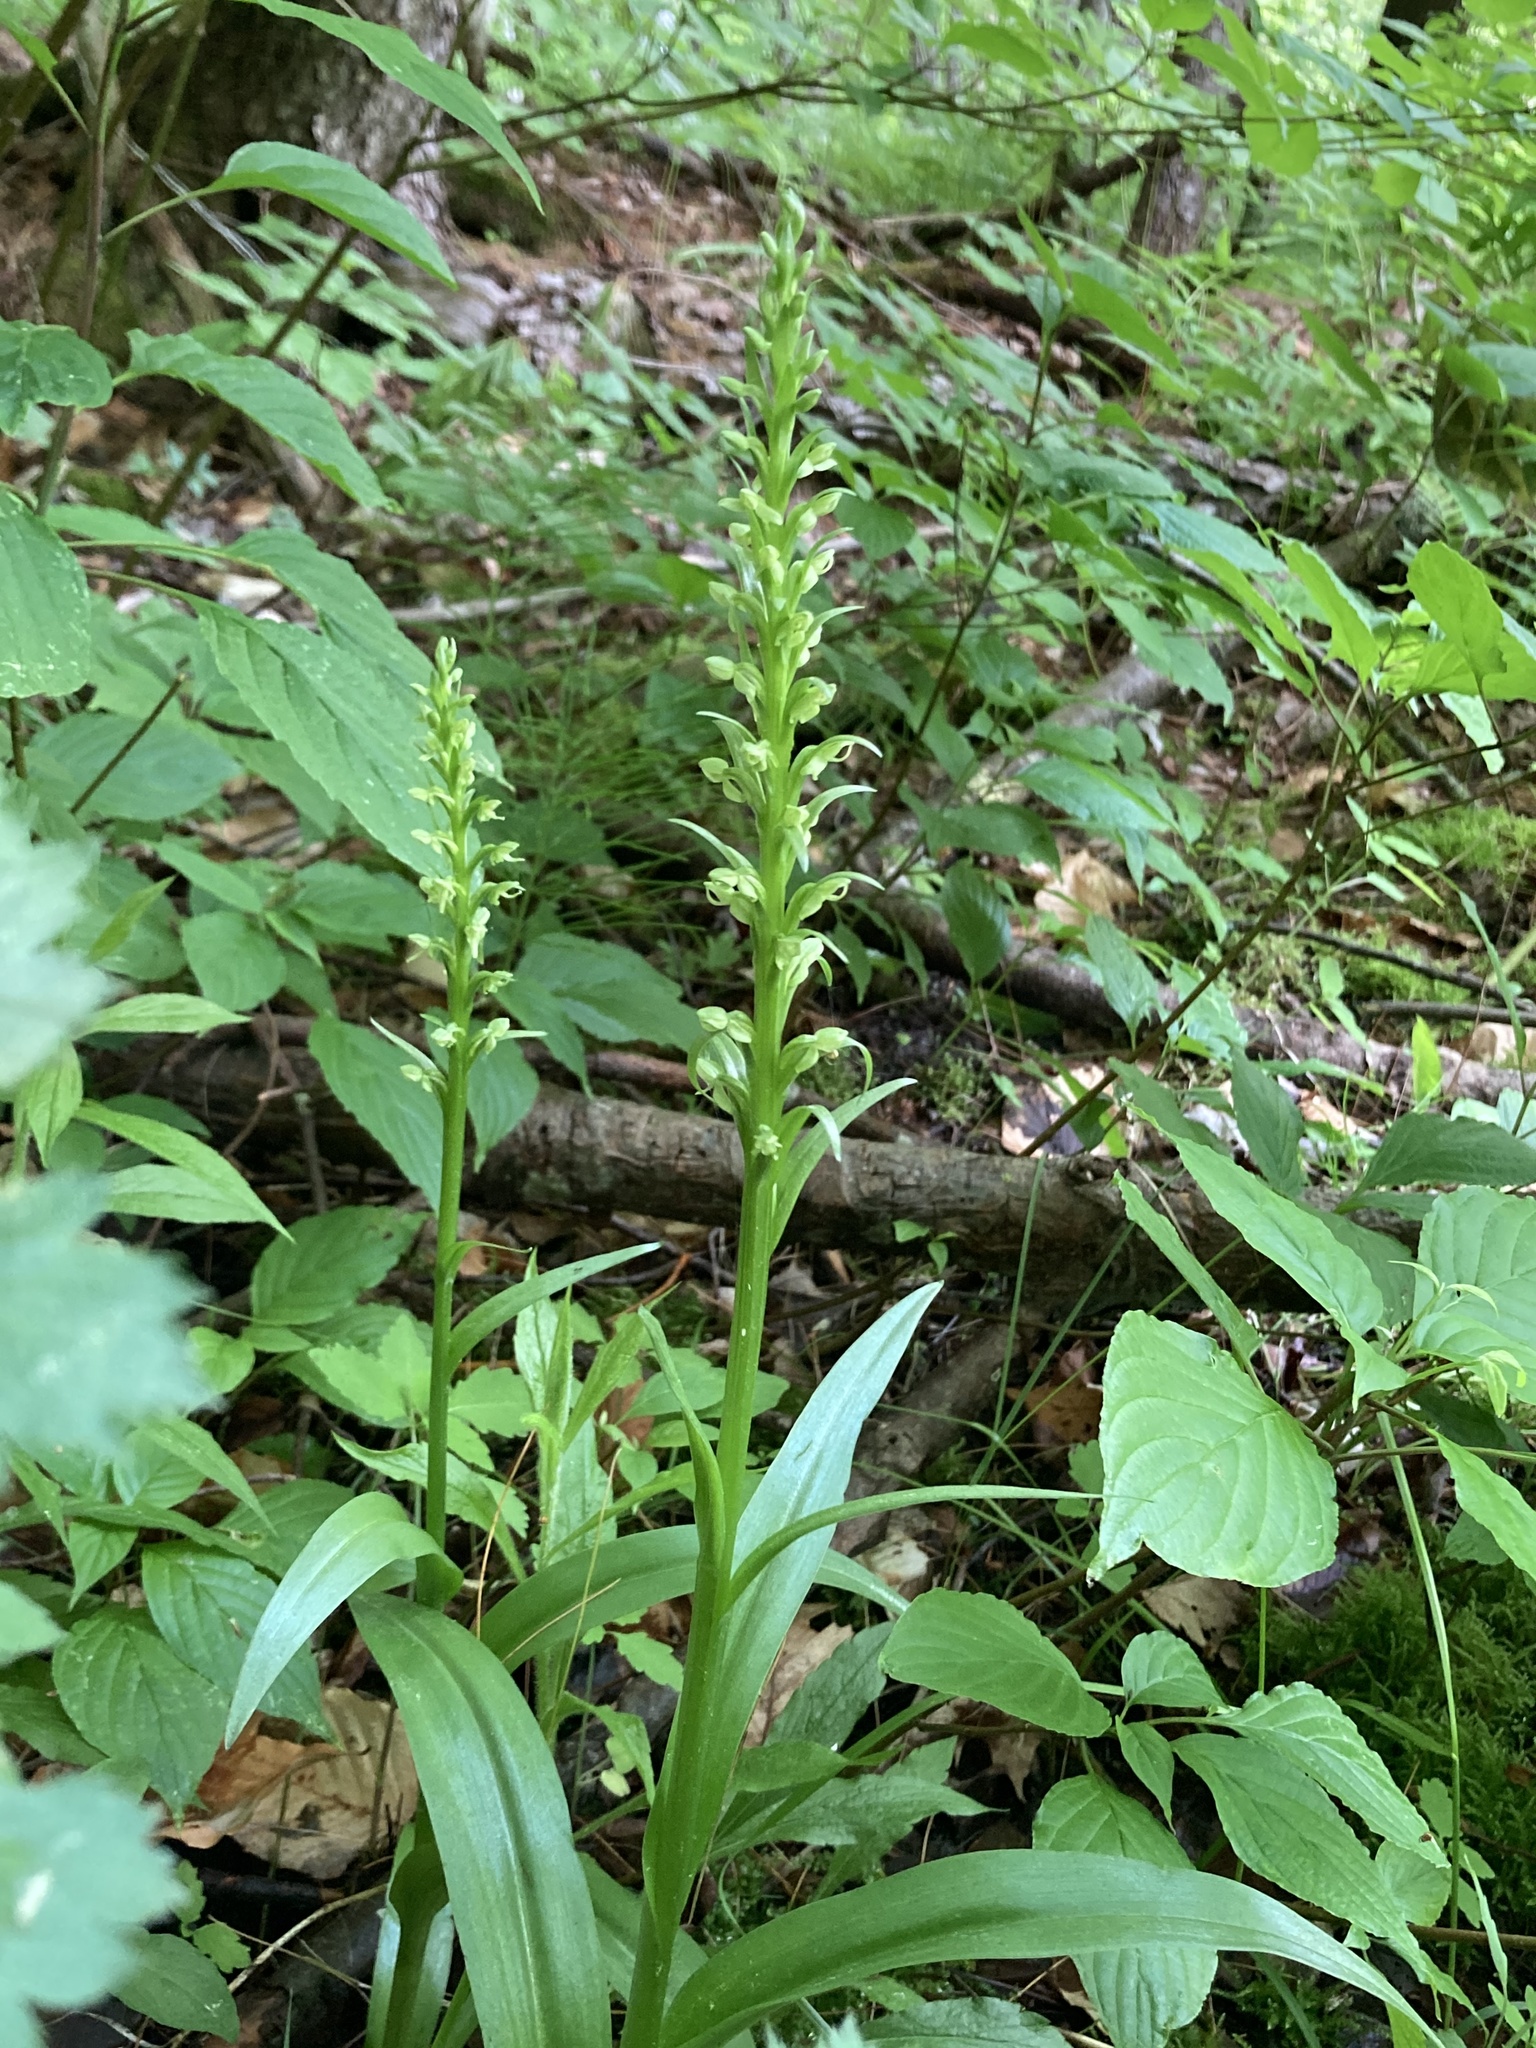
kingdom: Plantae
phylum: Tracheophyta
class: Liliopsida
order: Asparagales
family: Orchidaceae
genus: Platanthera
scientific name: Platanthera huronensis
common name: Fragrant green orchid
